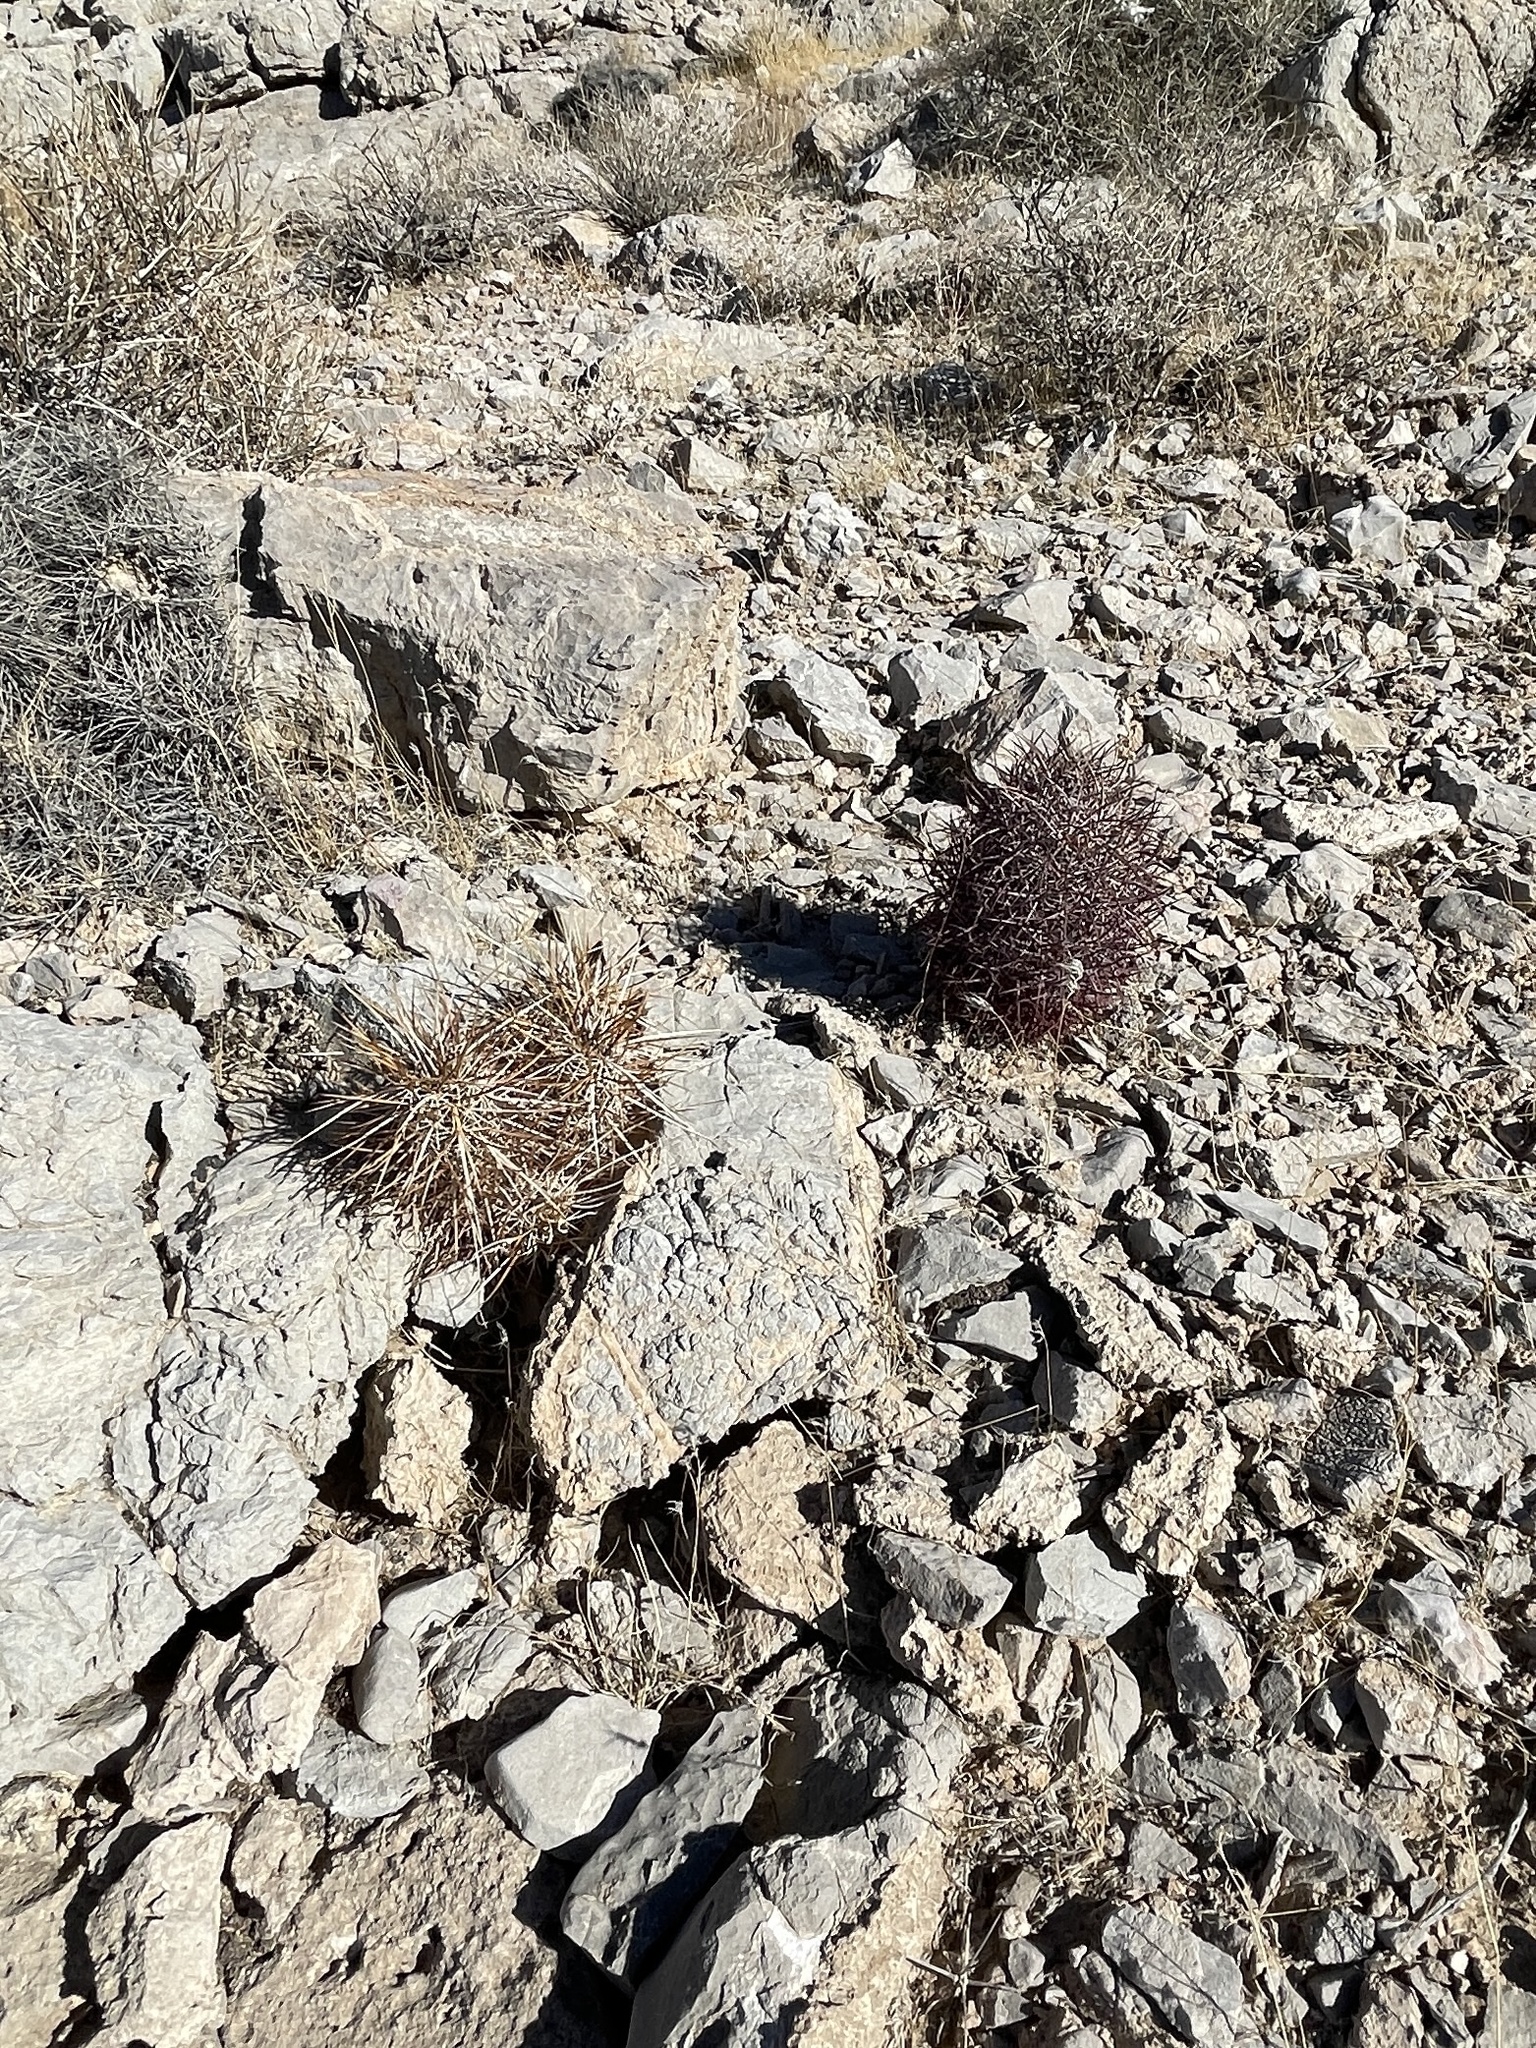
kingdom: Plantae
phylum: Tracheophyta
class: Magnoliopsida
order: Caryophyllales
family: Cactaceae
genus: Echinocereus
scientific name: Echinocereus engelmannii
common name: Engelmann's hedgehog cactus
